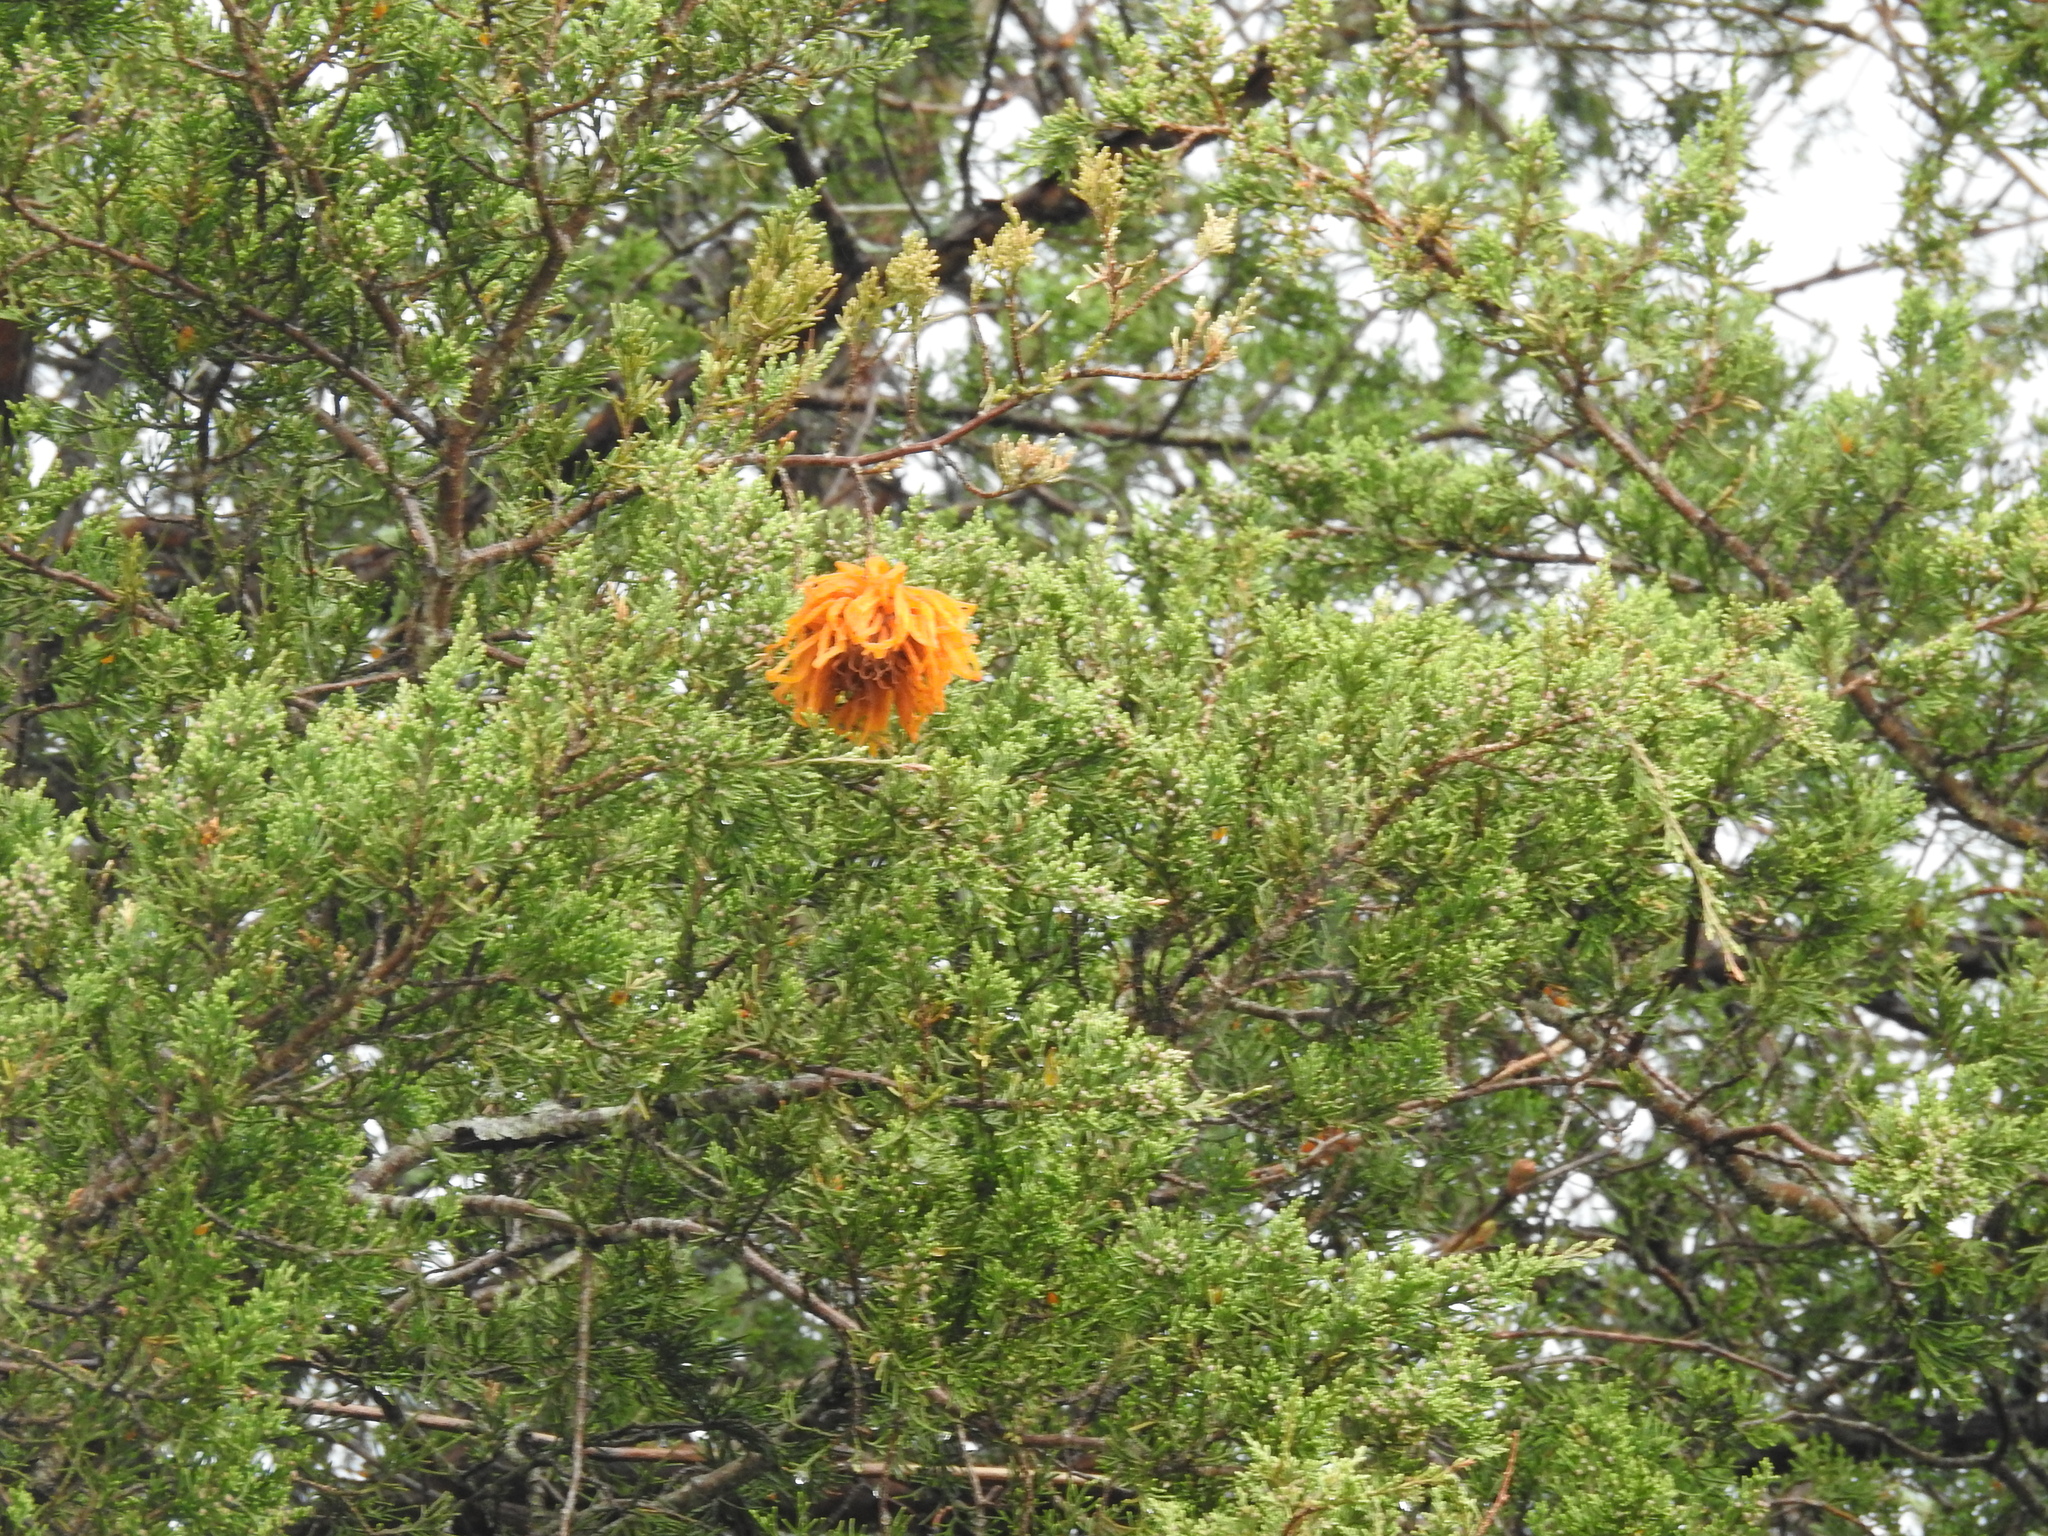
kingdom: Fungi
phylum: Basidiomycota
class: Pucciniomycetes
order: Pucciniales
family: Gymnosporangiaceae
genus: Gymnosporangium
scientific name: Gymnosporangium juniperi-virginianae
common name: Juniper-apple rust
